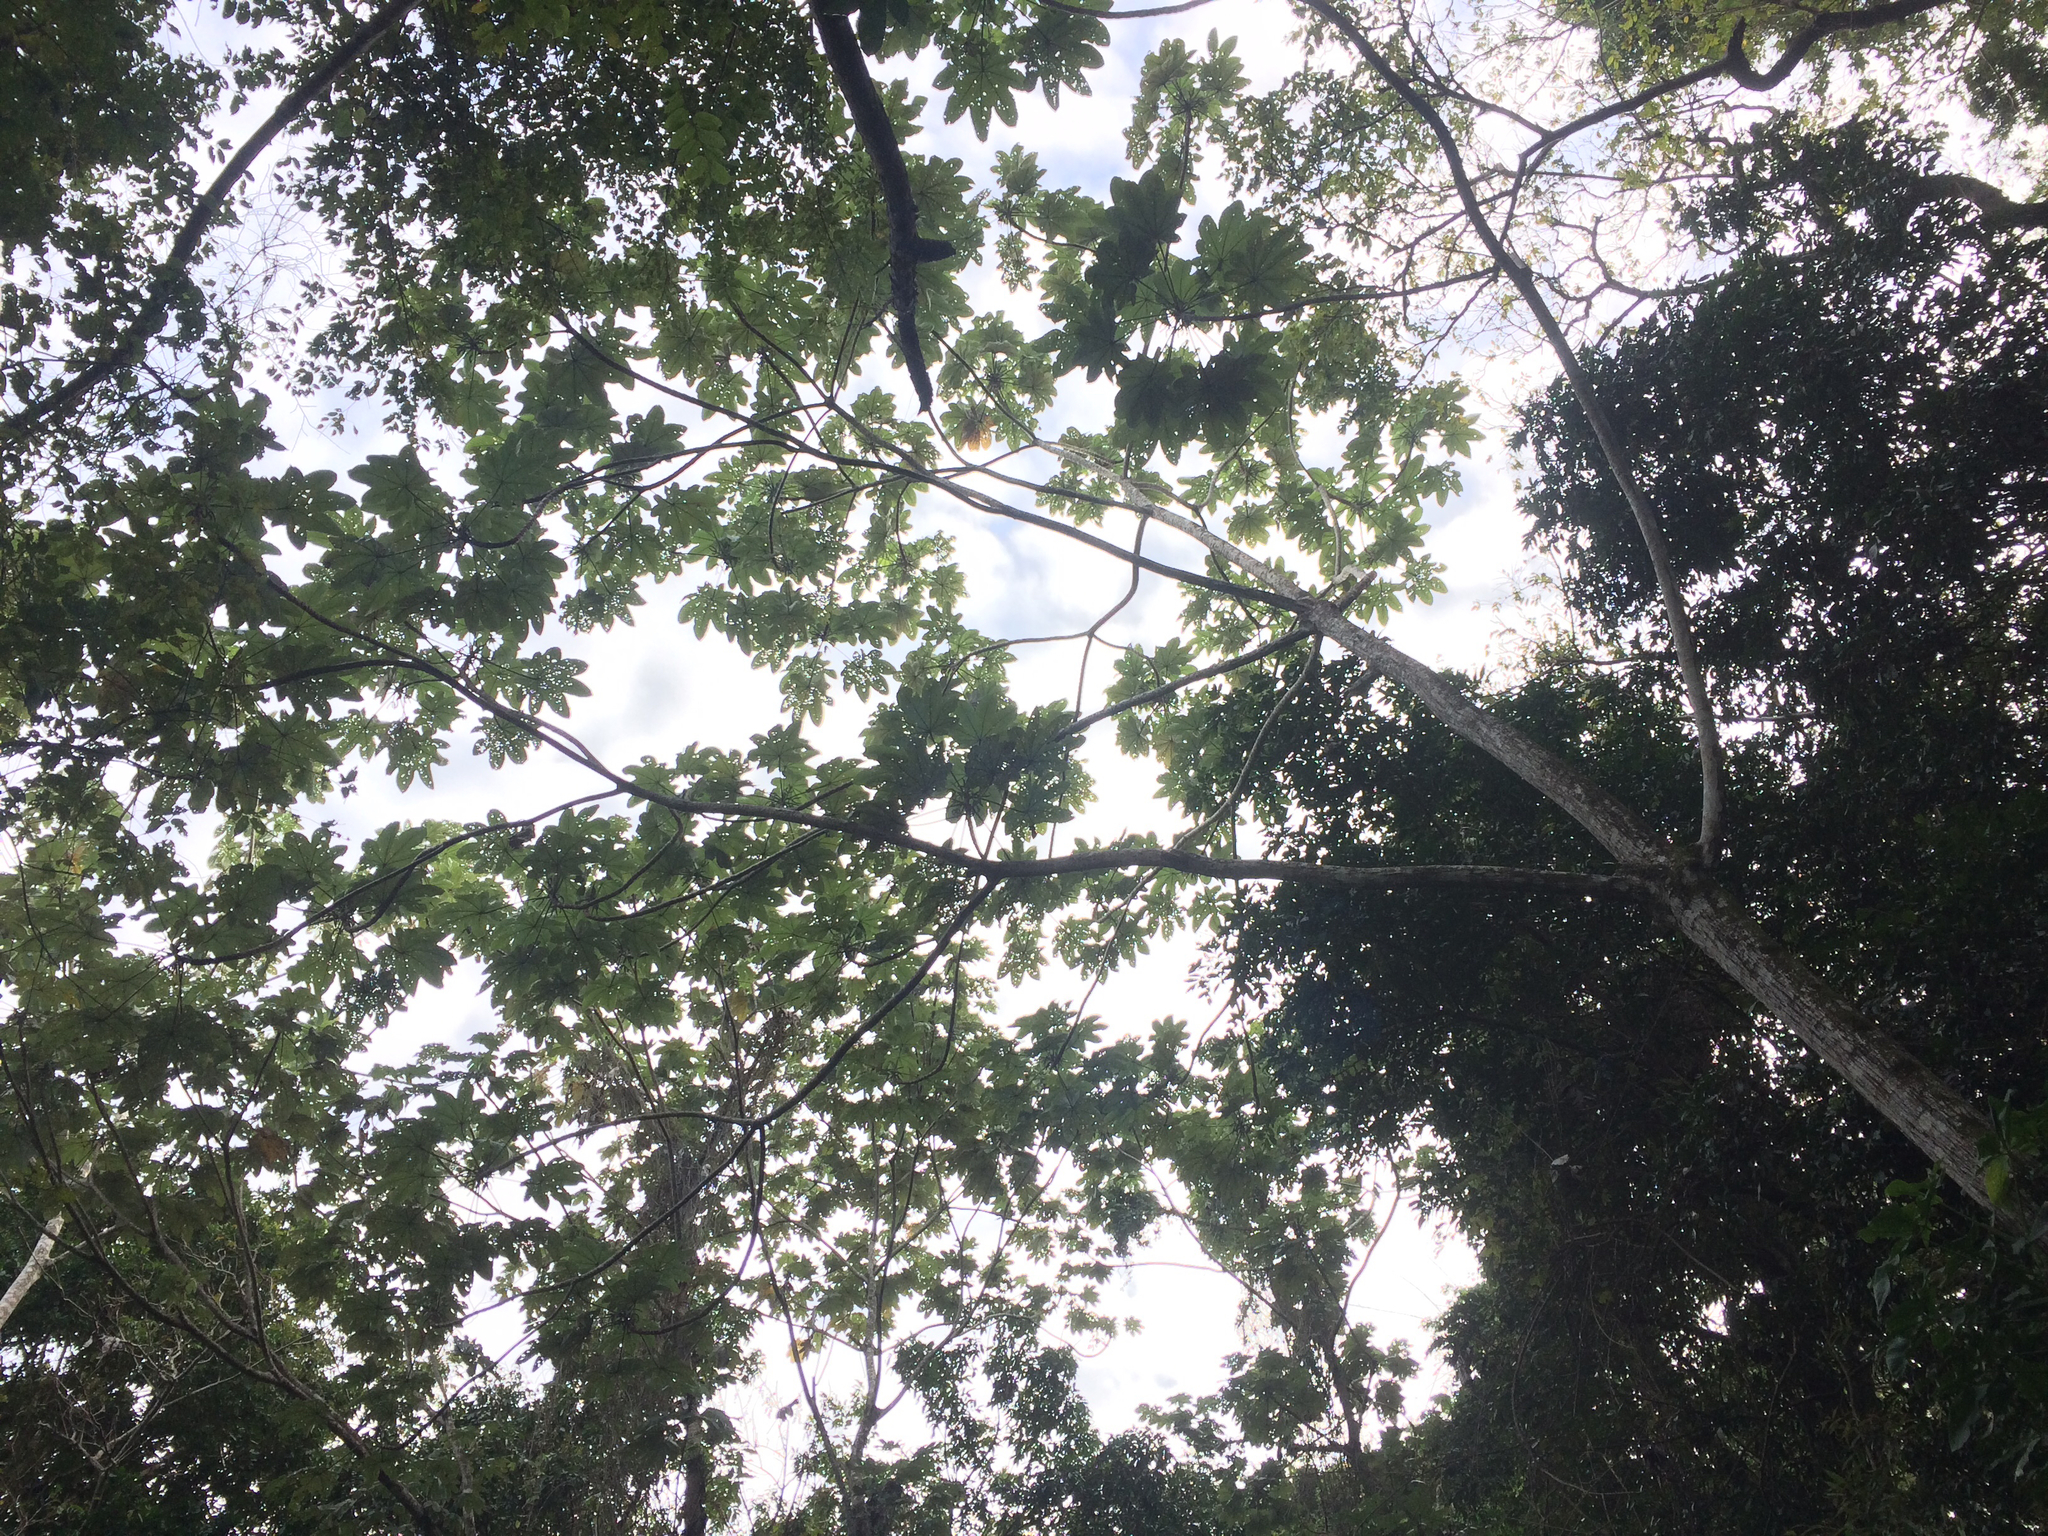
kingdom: Plantae
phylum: Tracheophyta
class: Magnoliopsida
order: Rosales
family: Urticaceae
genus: Cecropia
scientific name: Cecropia schreberiana
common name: Trumpet tree
